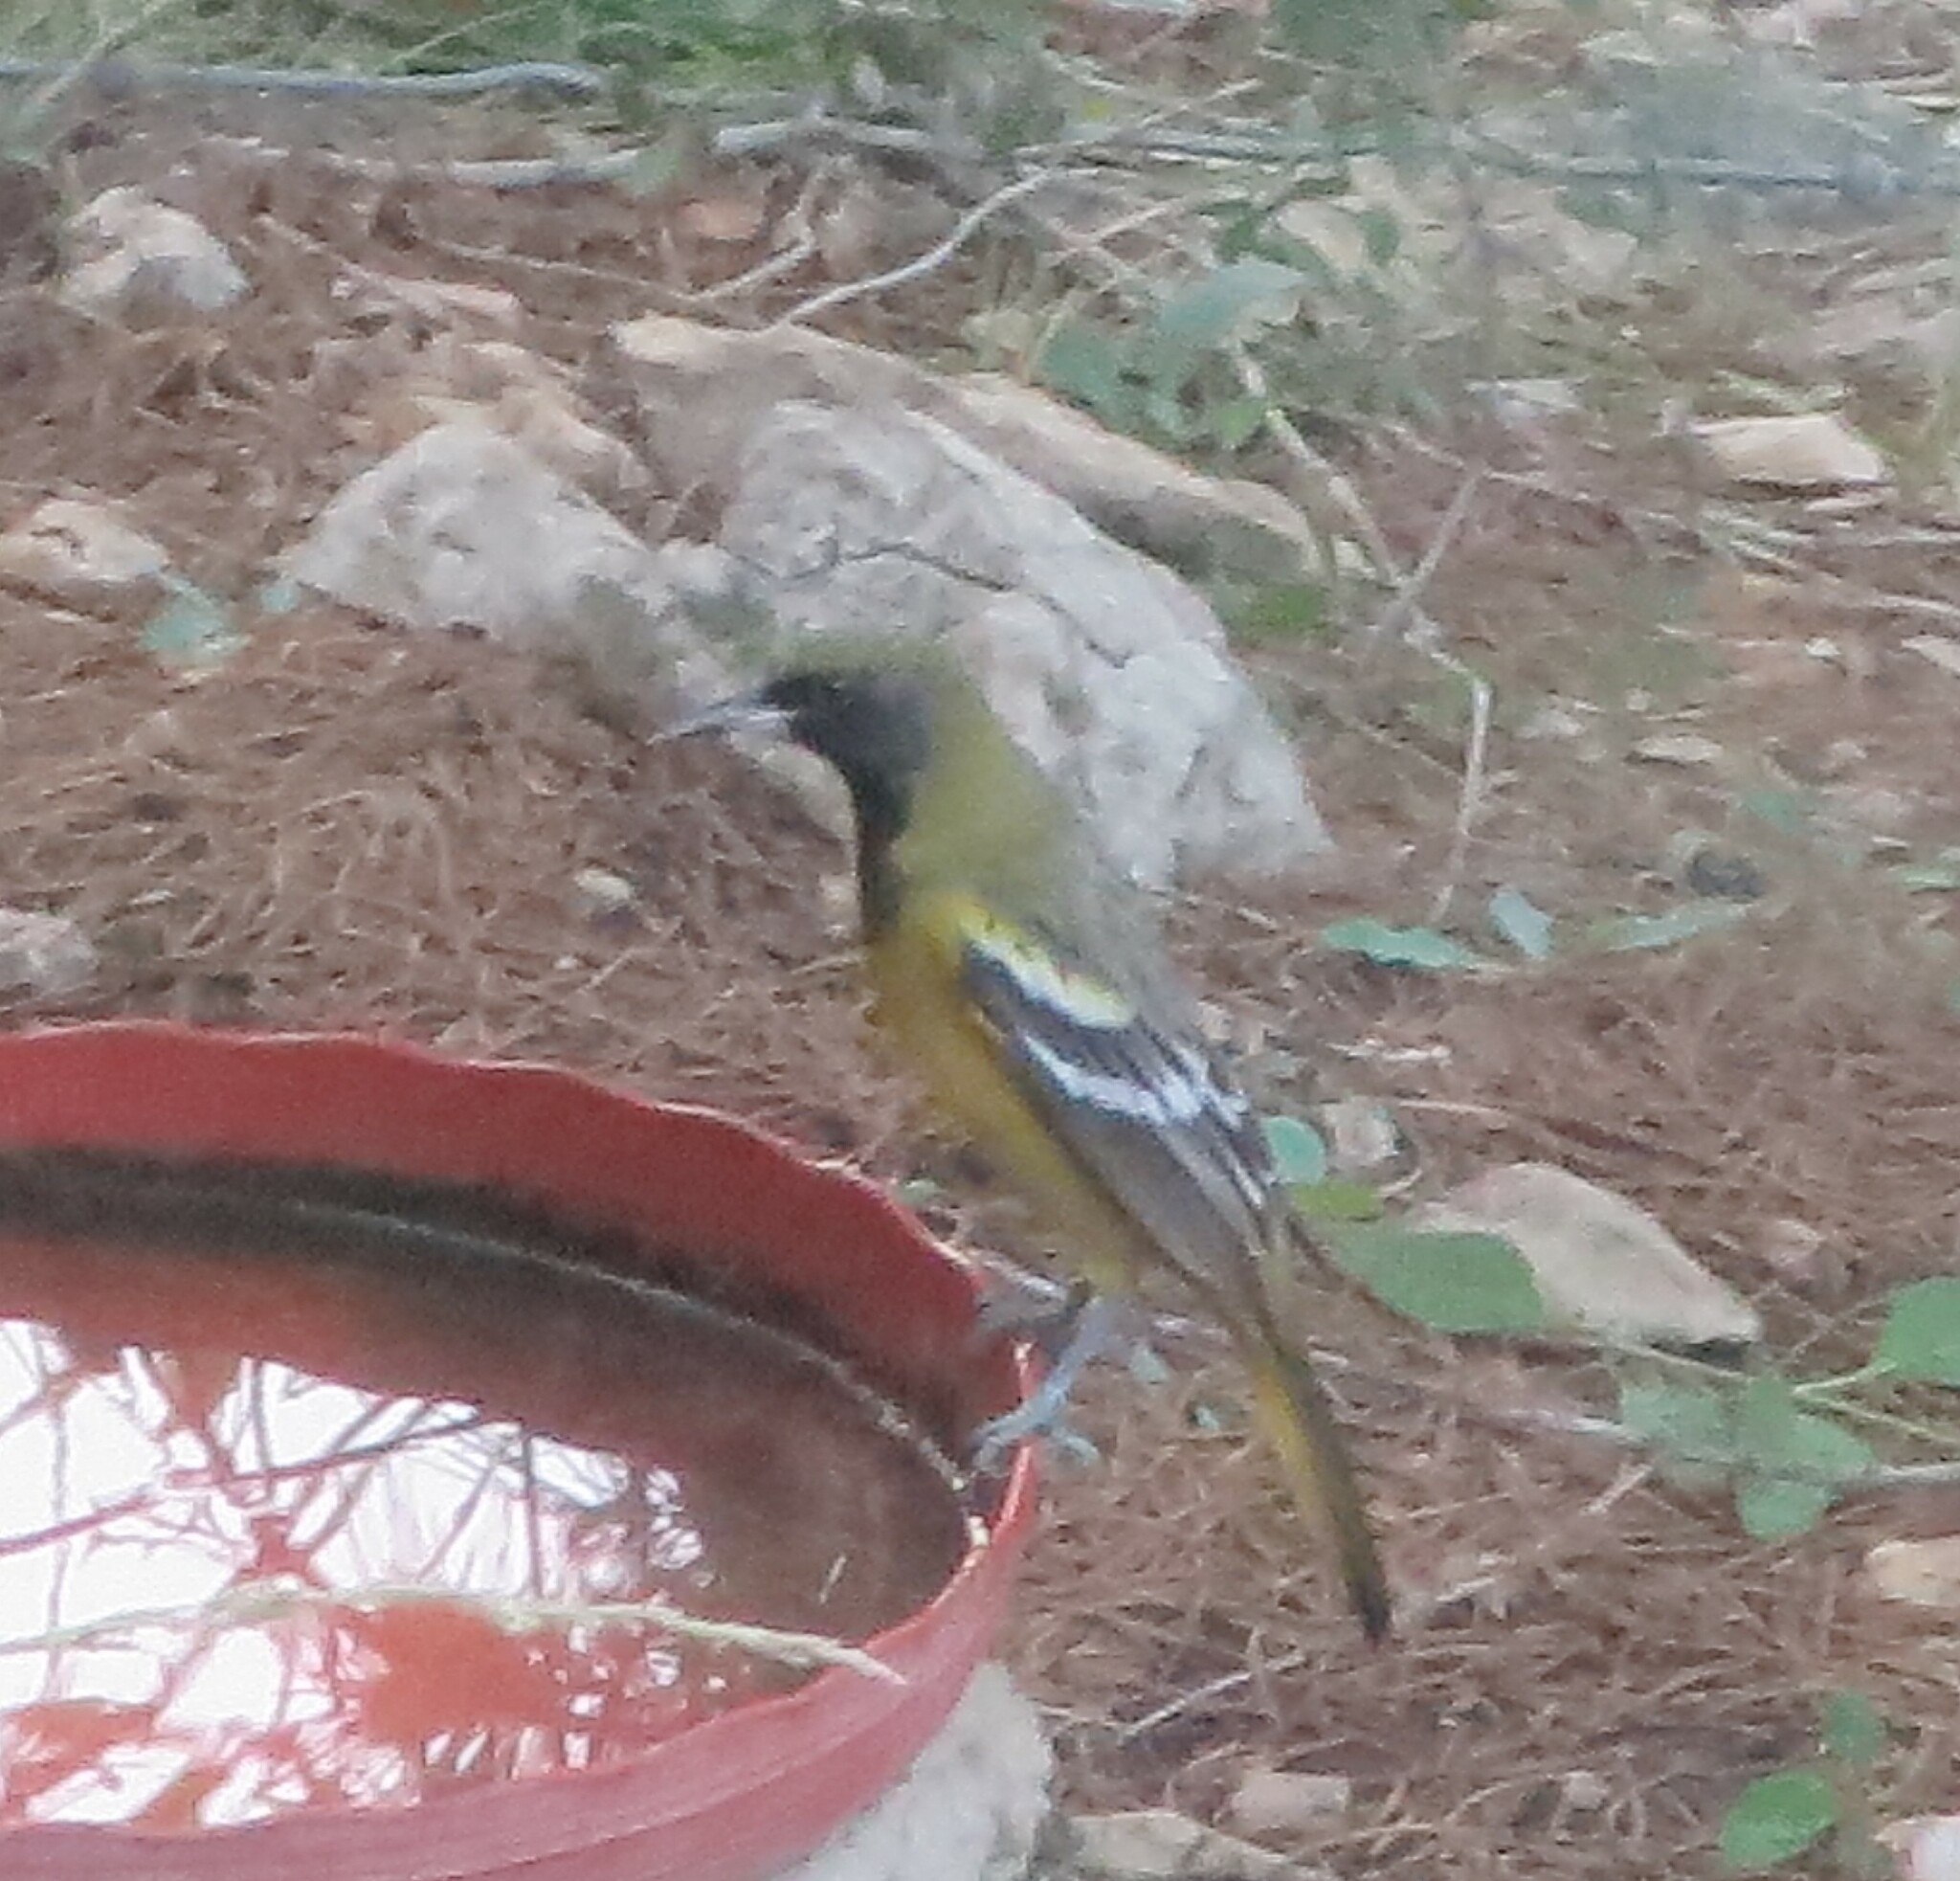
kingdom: Animalia
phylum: Chordata
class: Aves
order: Passeriformes
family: Icteridae
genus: Icterus
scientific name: Icterus parisorum
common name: Scott's oriole
